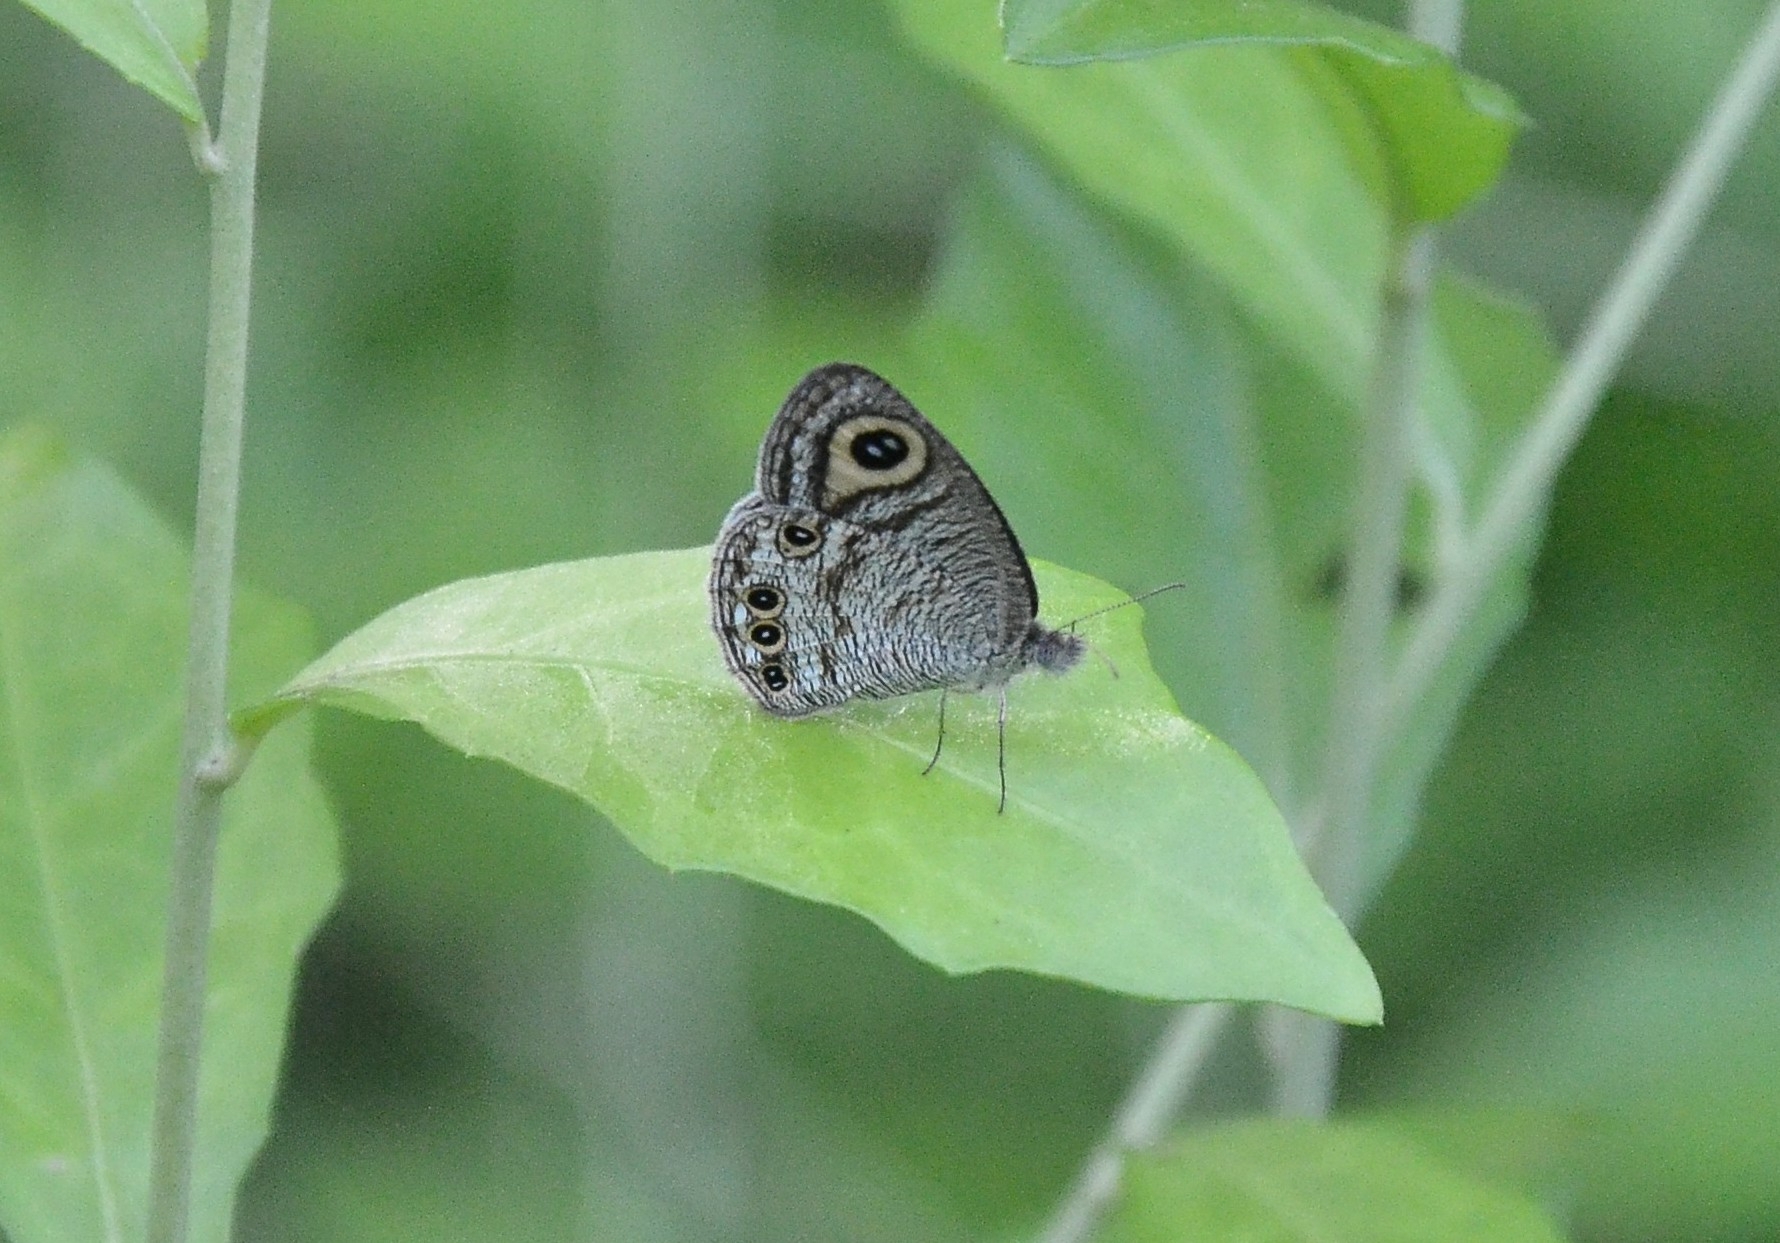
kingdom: Animalia
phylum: Arthropoda
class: Insecta
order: Lepidoptera
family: Nymphalidae
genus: Ypthima
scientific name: Ypthima huebneri
